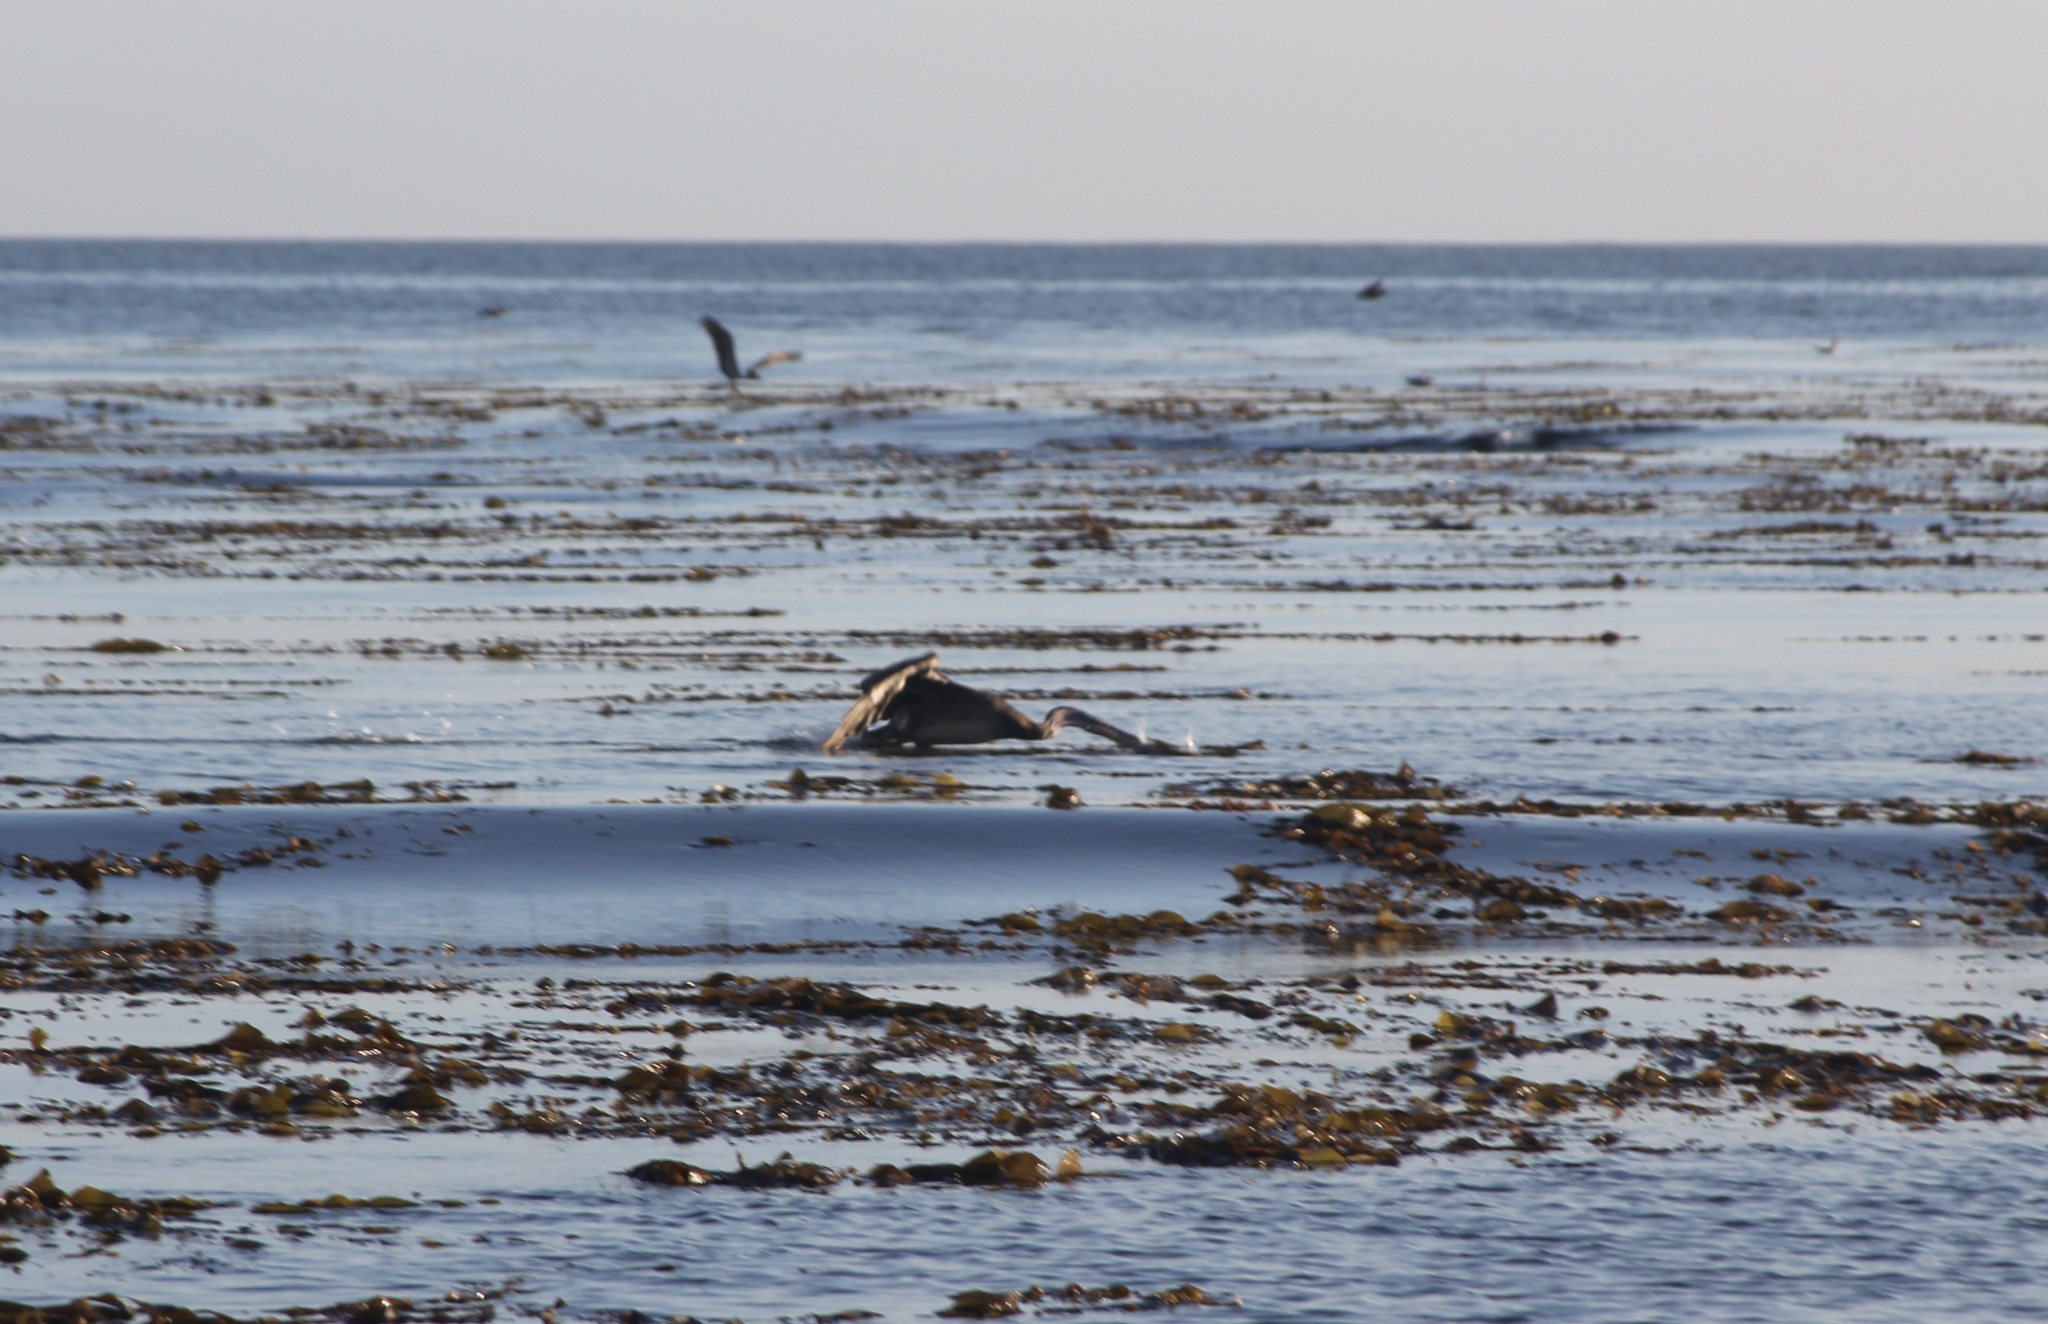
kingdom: Animalia
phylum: Chordata
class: Aves
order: Pelecaniformes
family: Pelecanidae
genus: Pelecanus
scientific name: Pelecanus occidentalis
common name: Brown pelican
